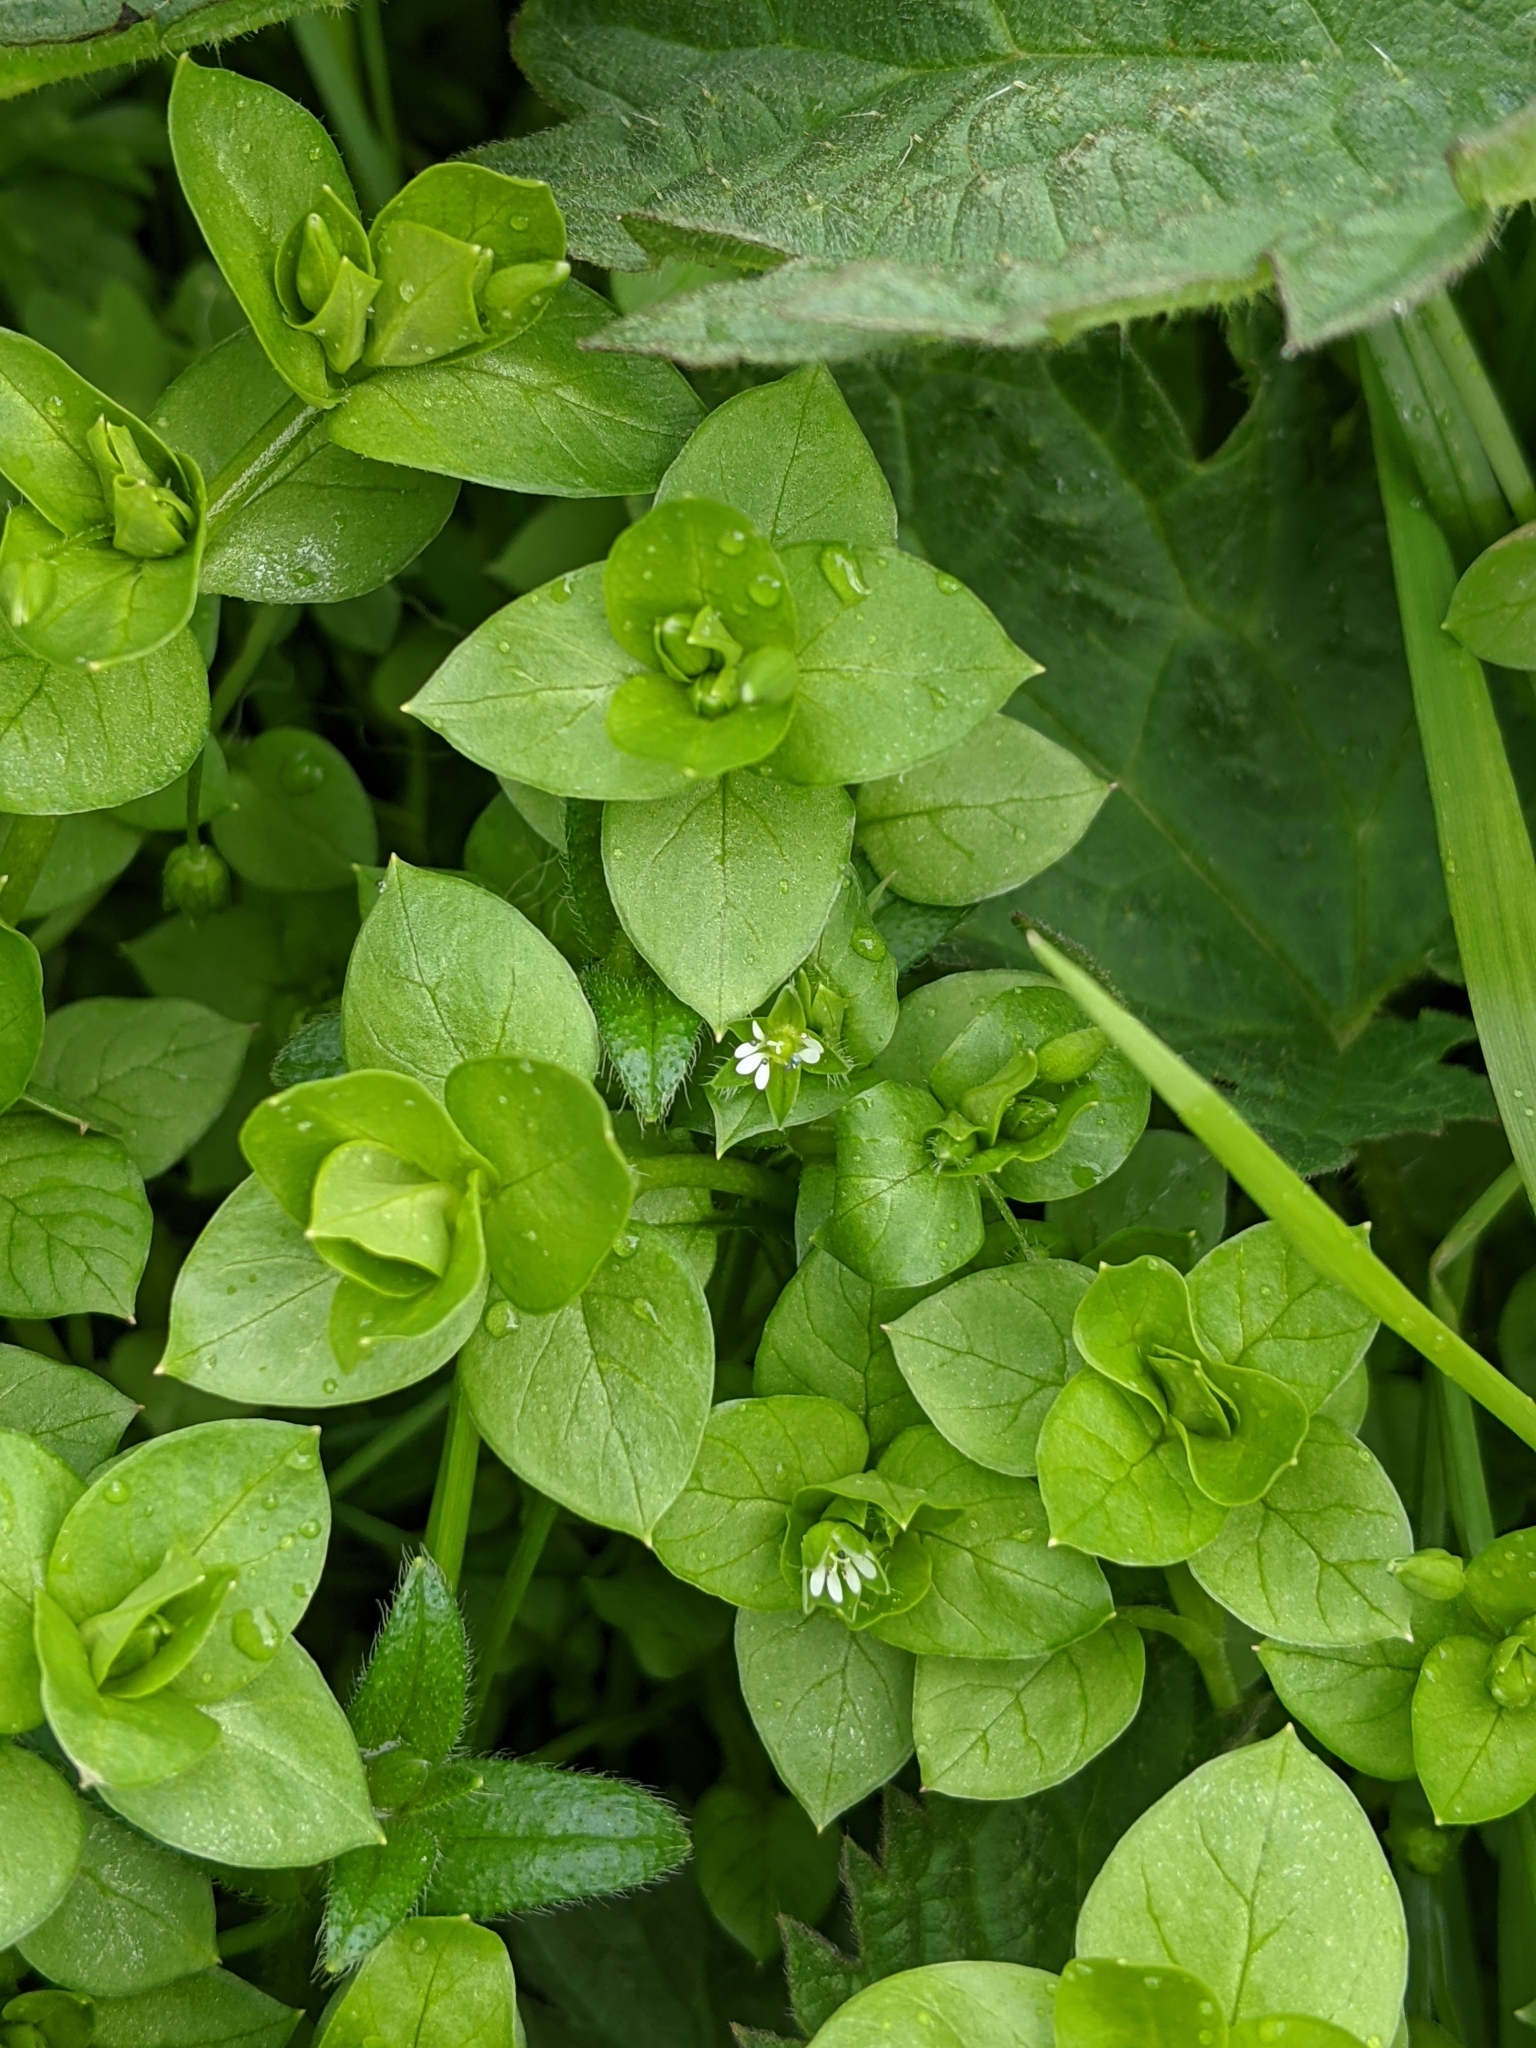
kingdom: Plantae
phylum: Tracheophyta
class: Magnoliopsida
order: Caryophyllales
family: Caryophyllaceae
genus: Stellaria
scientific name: Stellaria media
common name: Common chickweed
